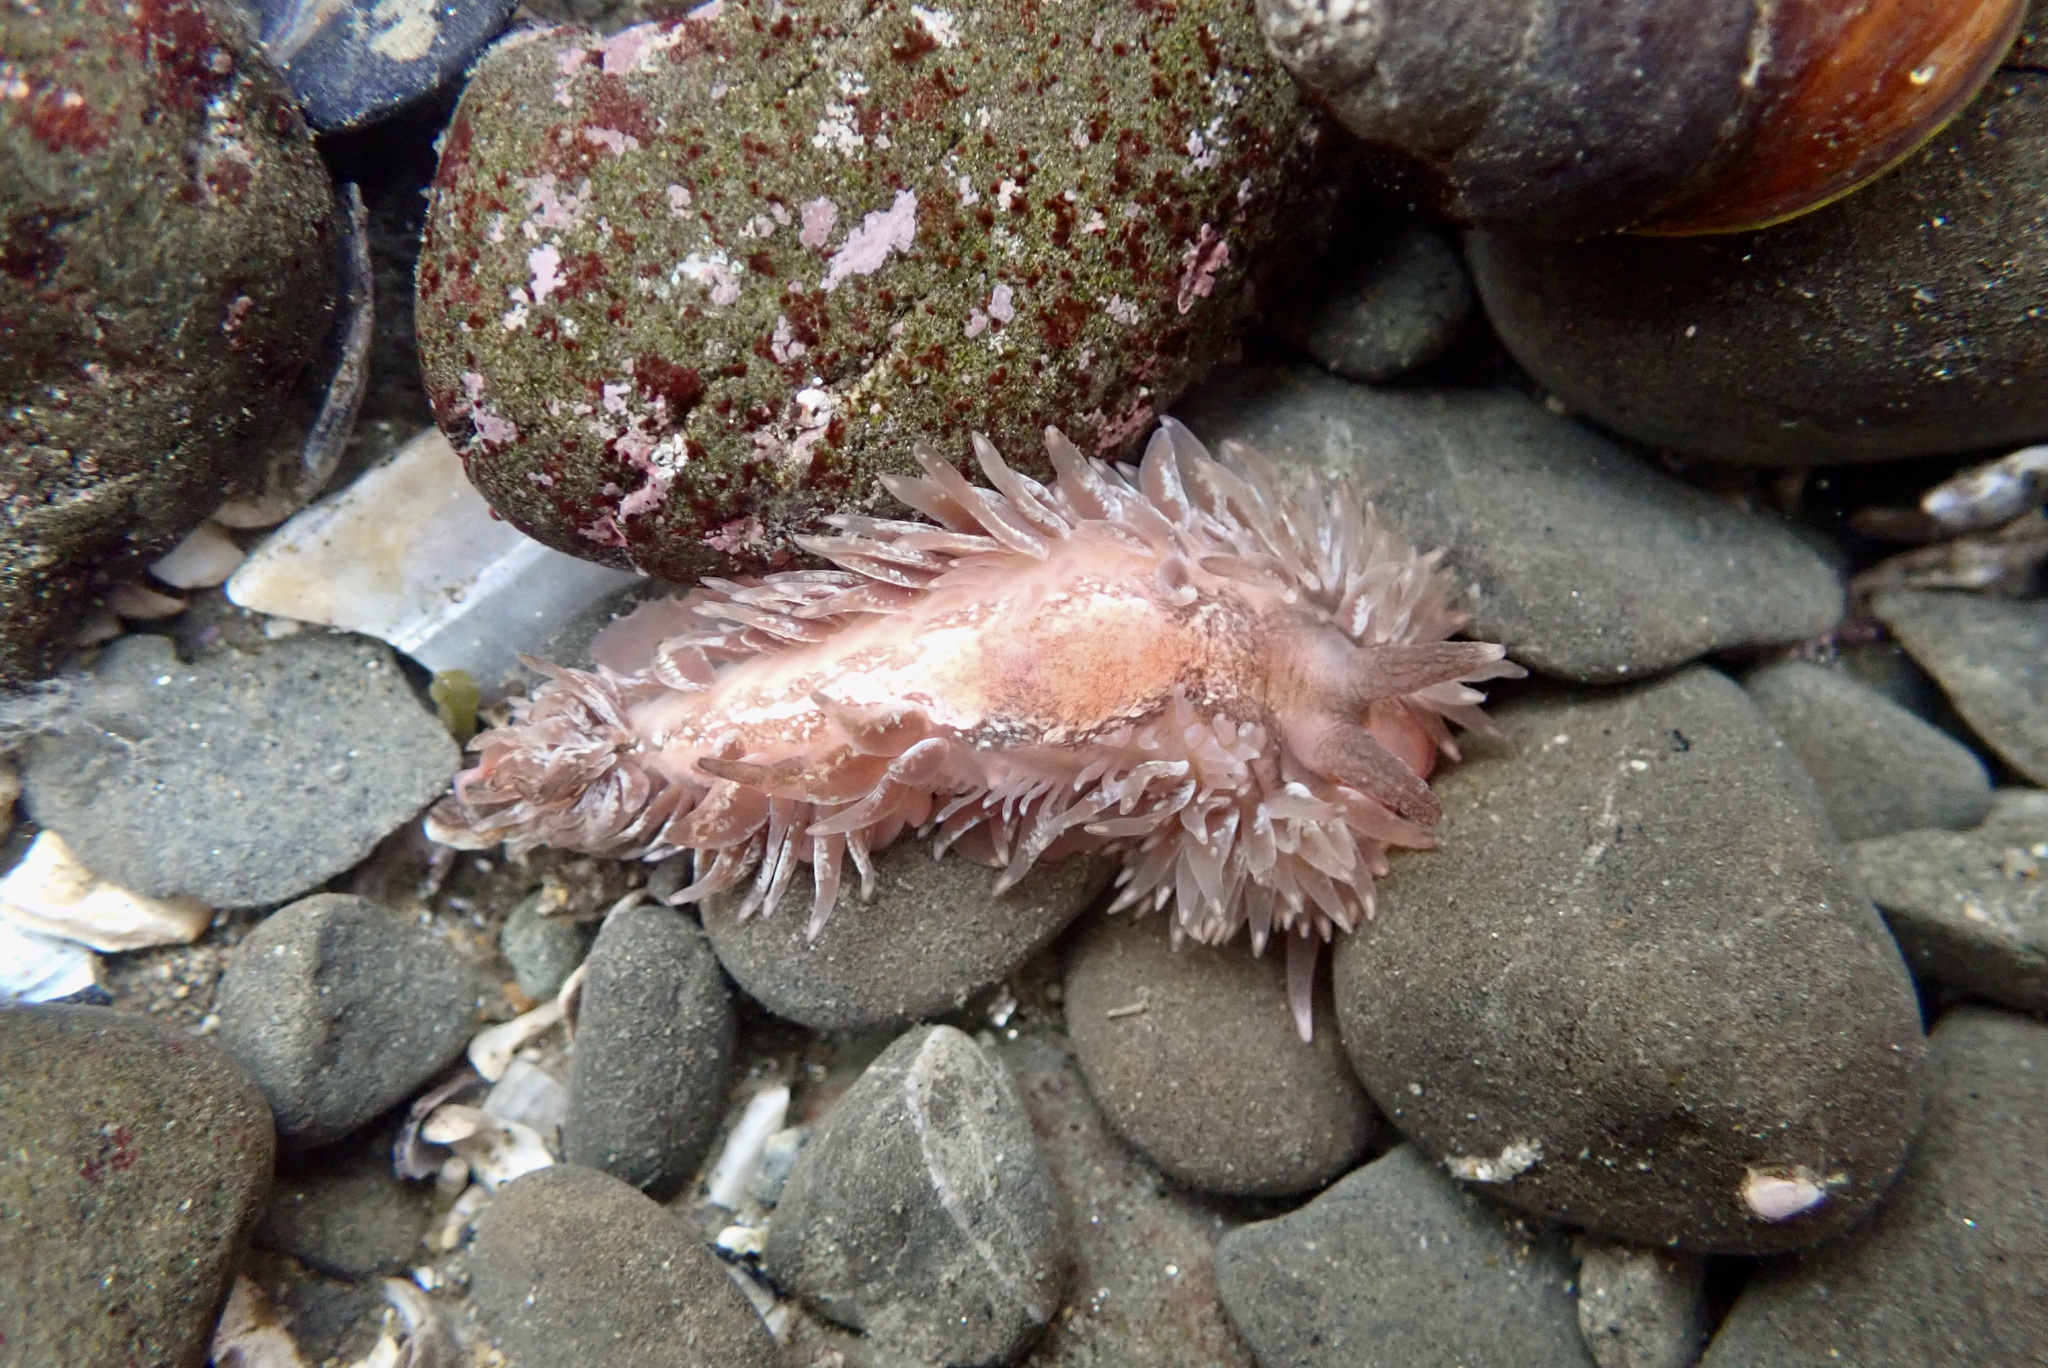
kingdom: Animalia
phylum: Mollusca
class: Gastropoda
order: Nudibranchia
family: Aeolidiidae
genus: Aeolidia
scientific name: Aeolidia loui
